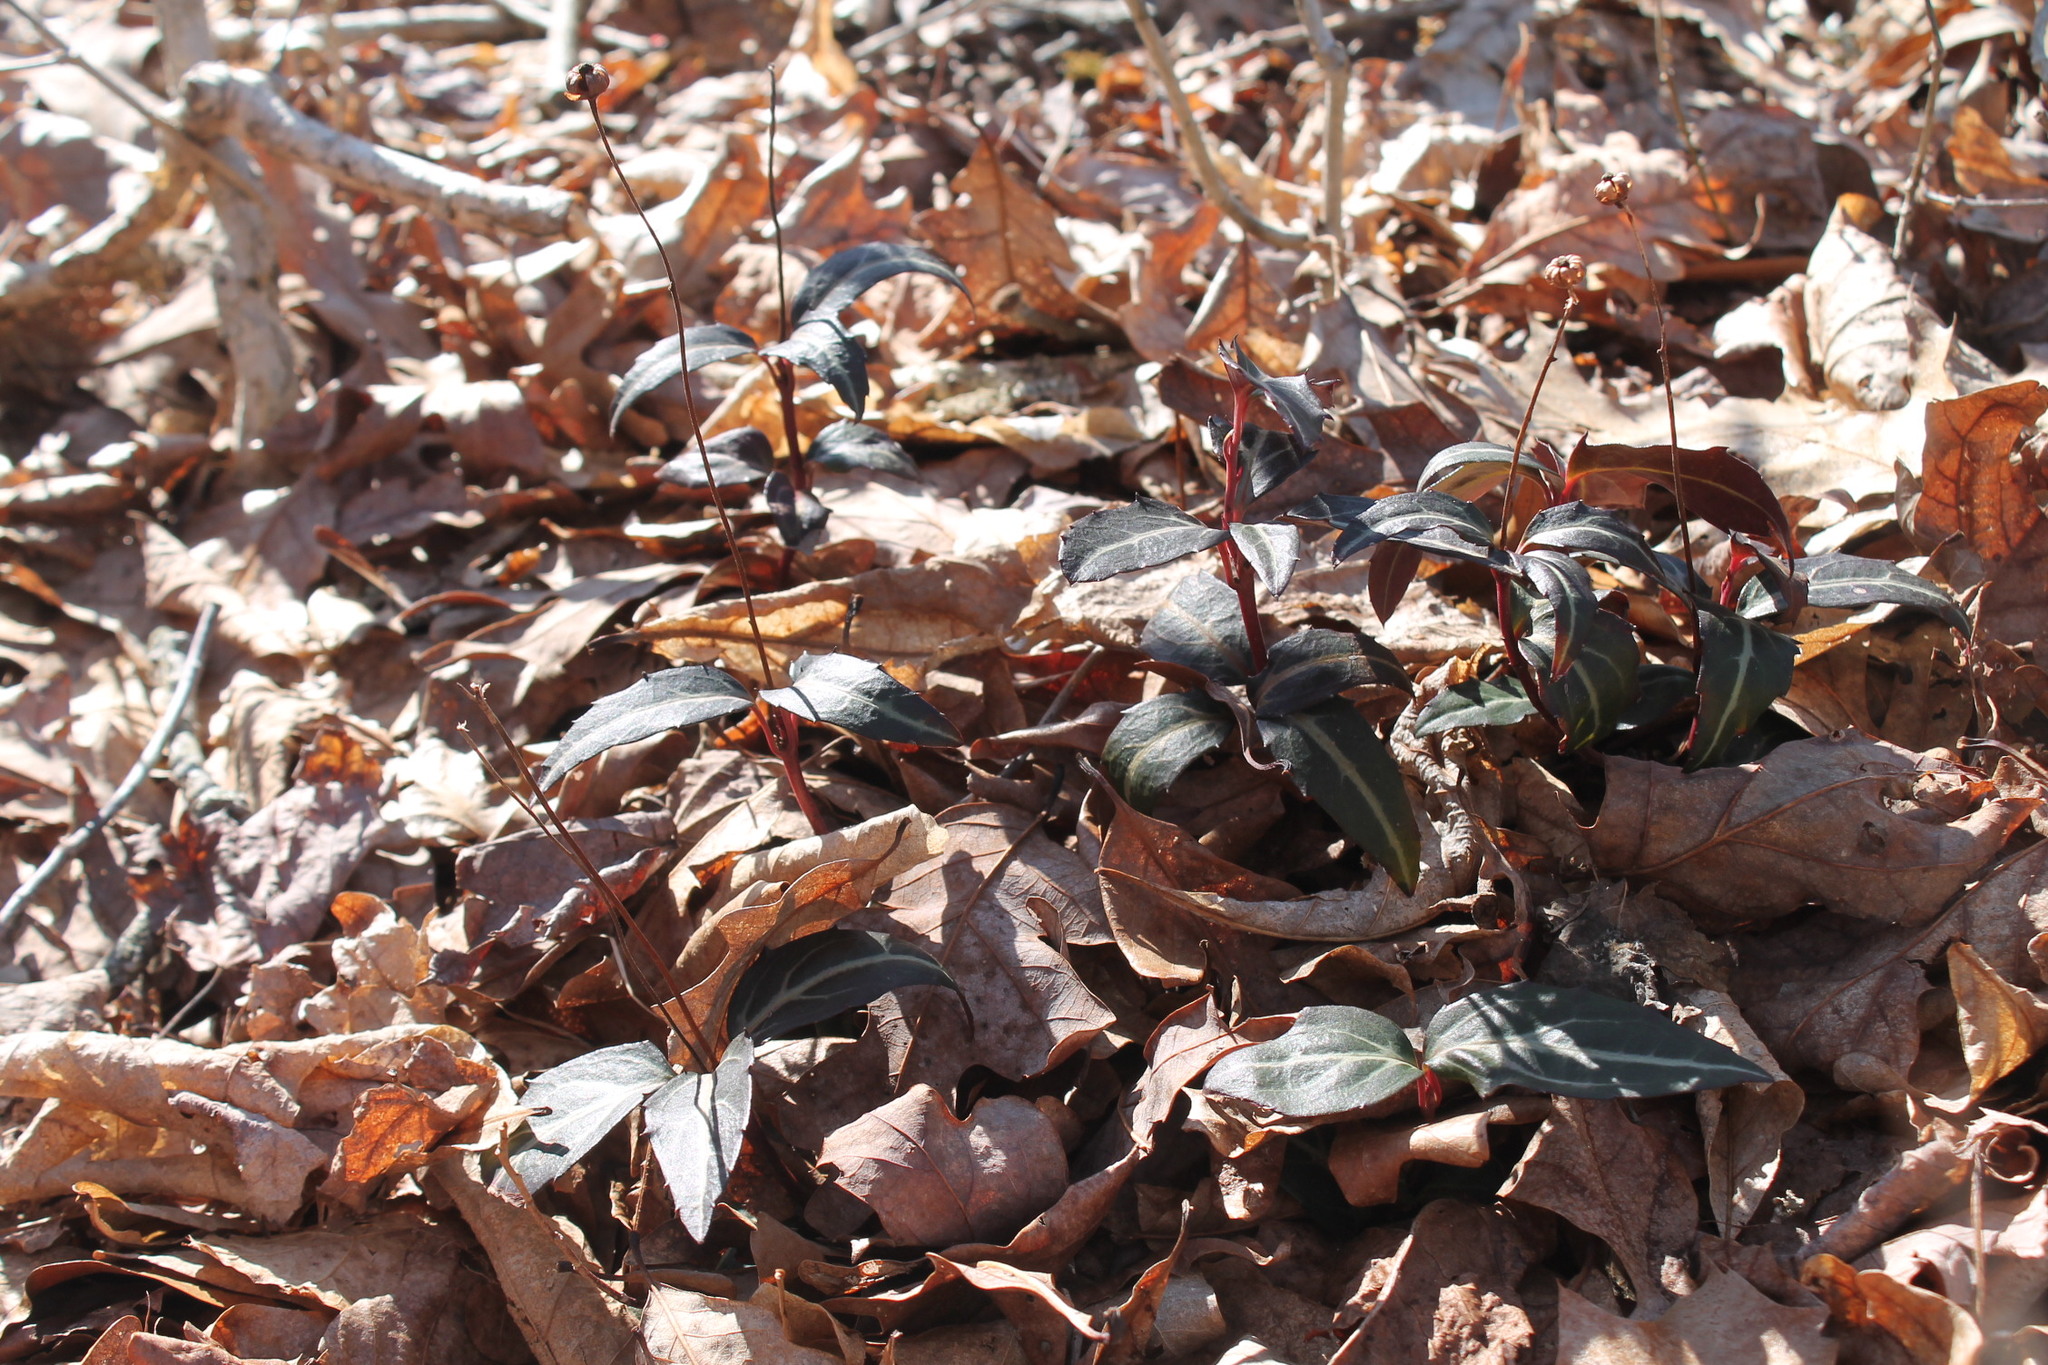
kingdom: Plantae
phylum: Tracheophyta
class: Magnoliopsida
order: Ericales
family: Ericaceae
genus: Chimaphila
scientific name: Chimaphila maculata
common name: Spotted pipsissewa
